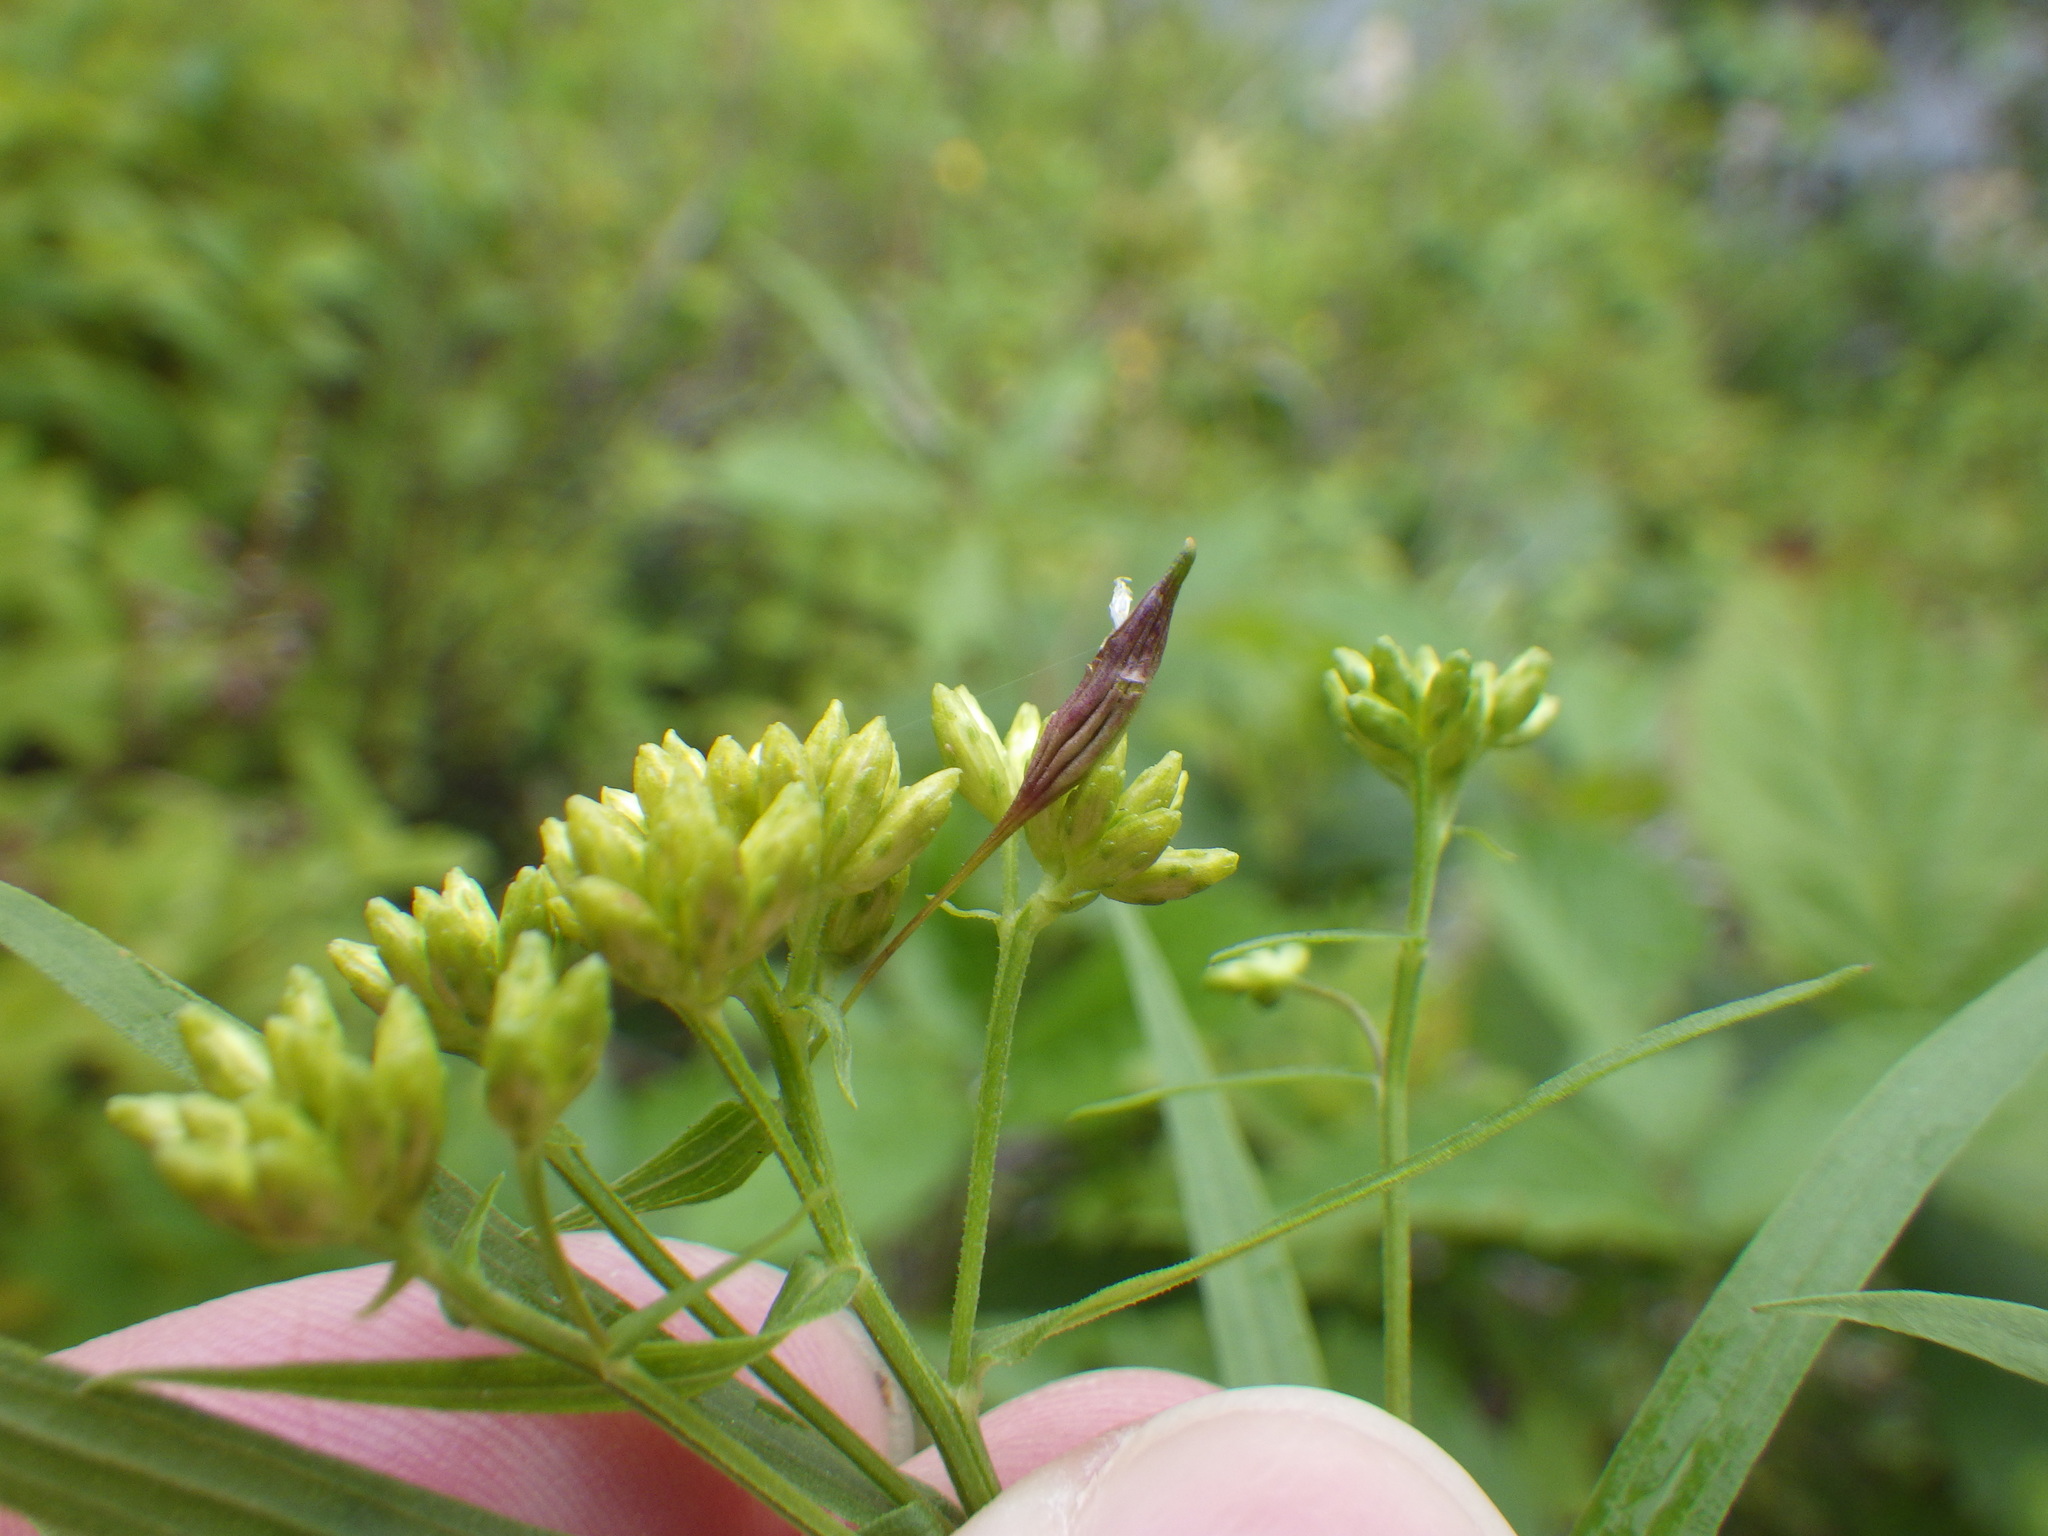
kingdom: Animalia
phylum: Arthropoda
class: Insecta
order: Diptera
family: Cecidomyiidae
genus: Rhopalomyia
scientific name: Rhopalomyia pedicellata
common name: Goldentop pedicellate gall midge
